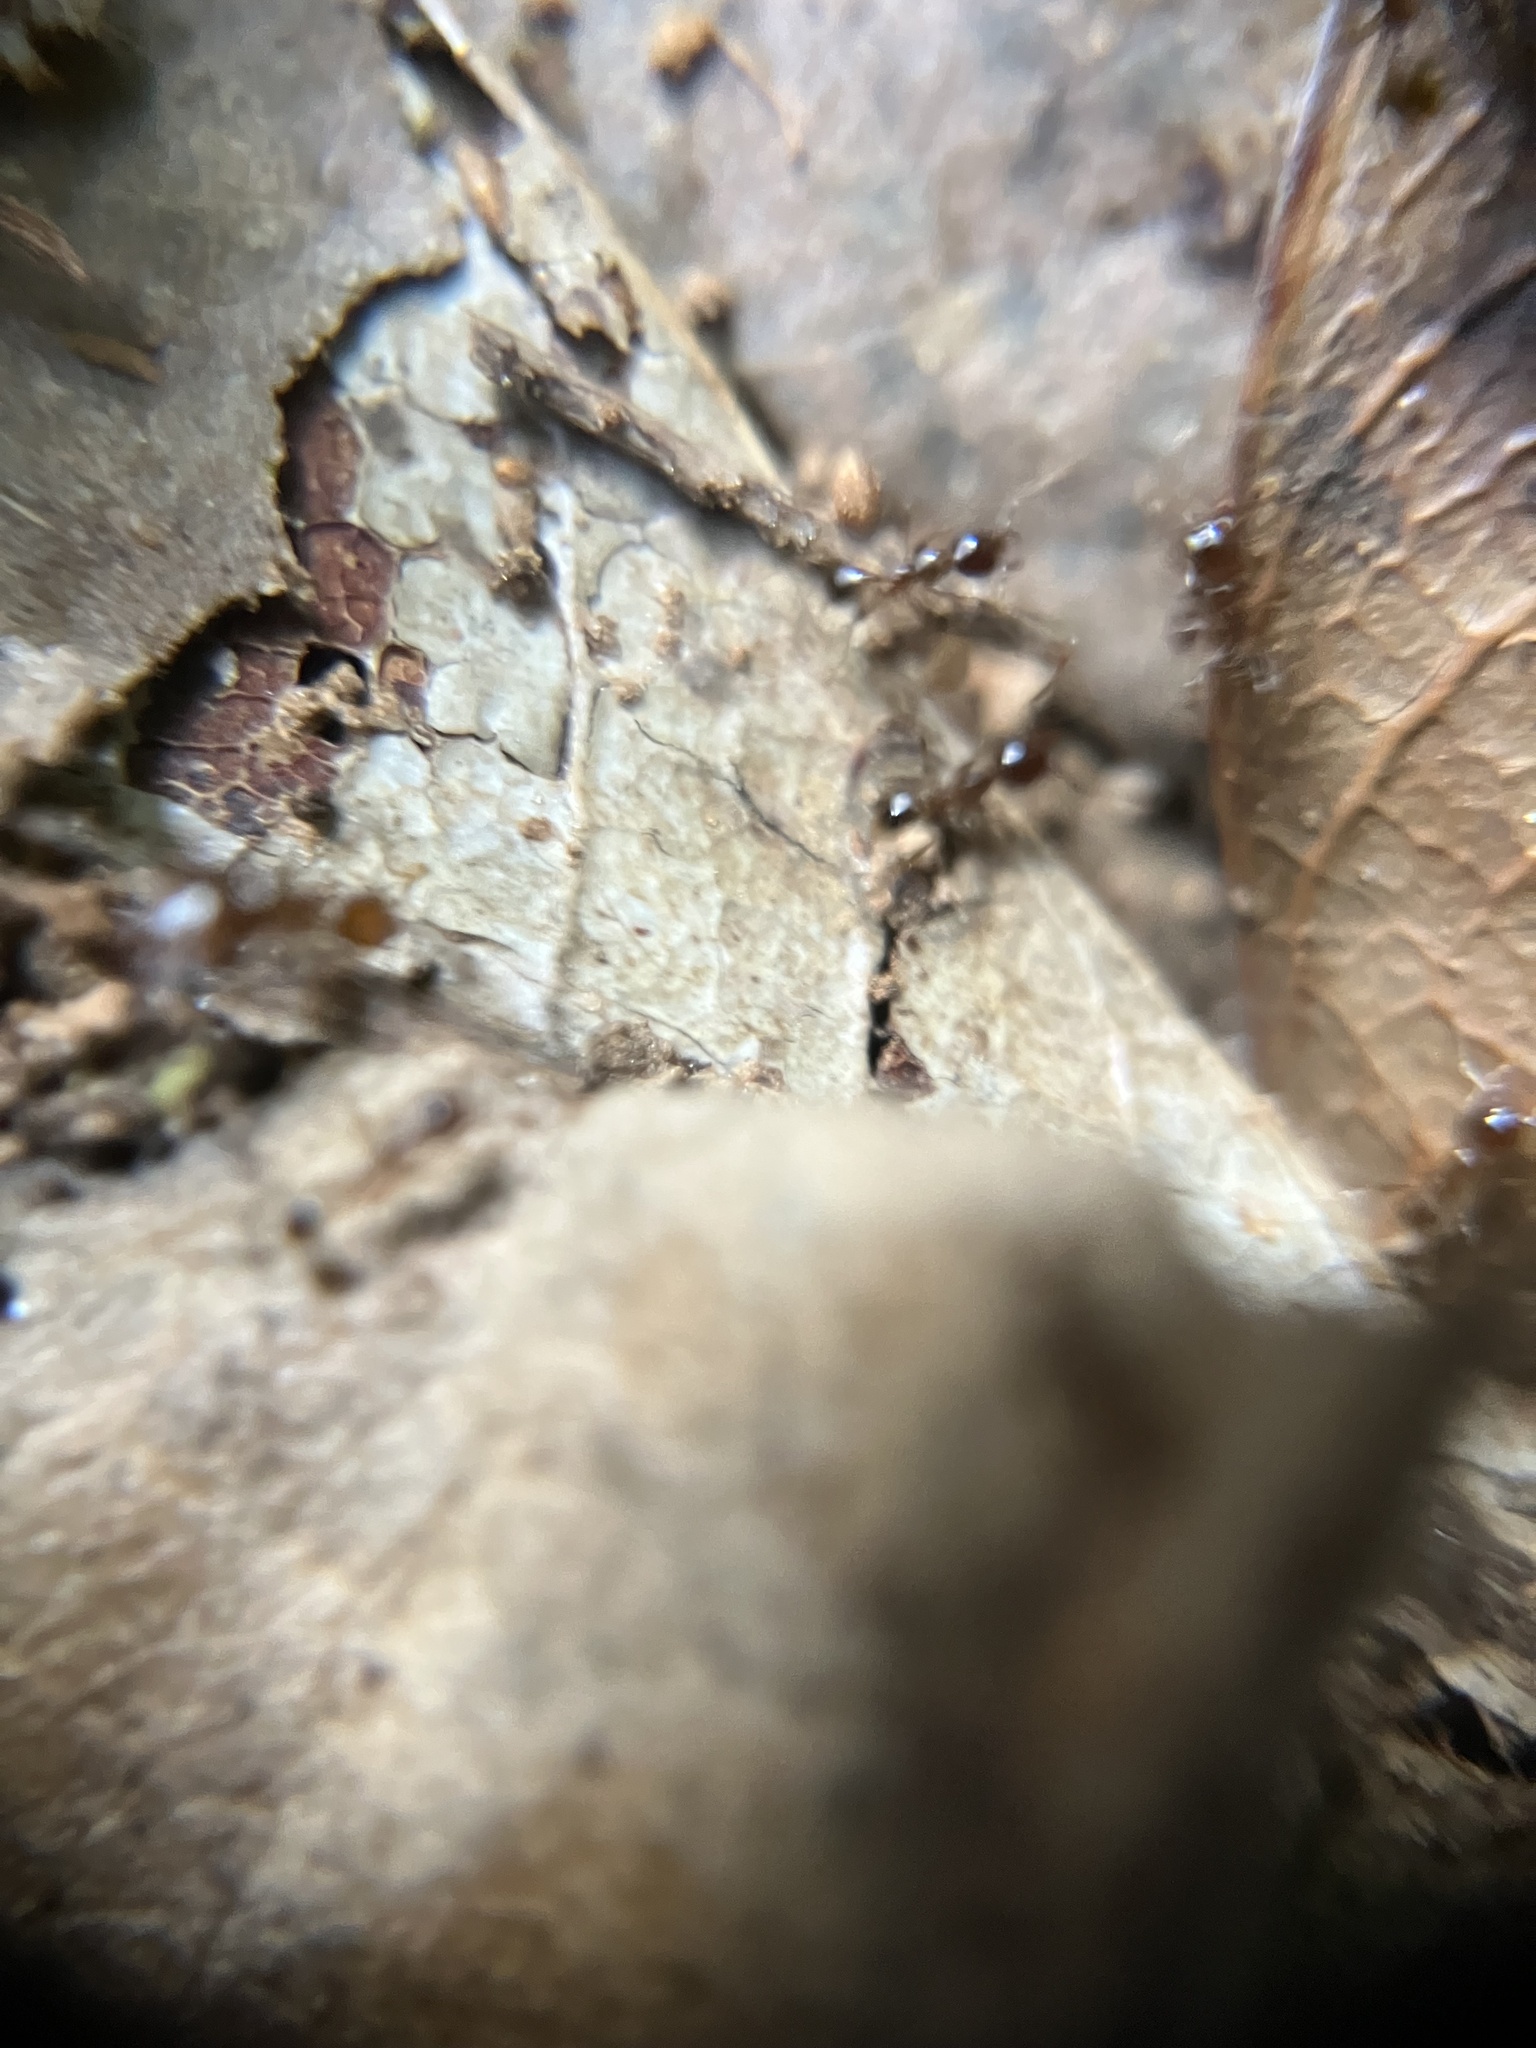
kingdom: Animalia
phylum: Arthropoda
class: Insecta
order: Hymenoptera
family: Formicidae
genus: Pheidologeton
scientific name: Pheidologeton diversus
